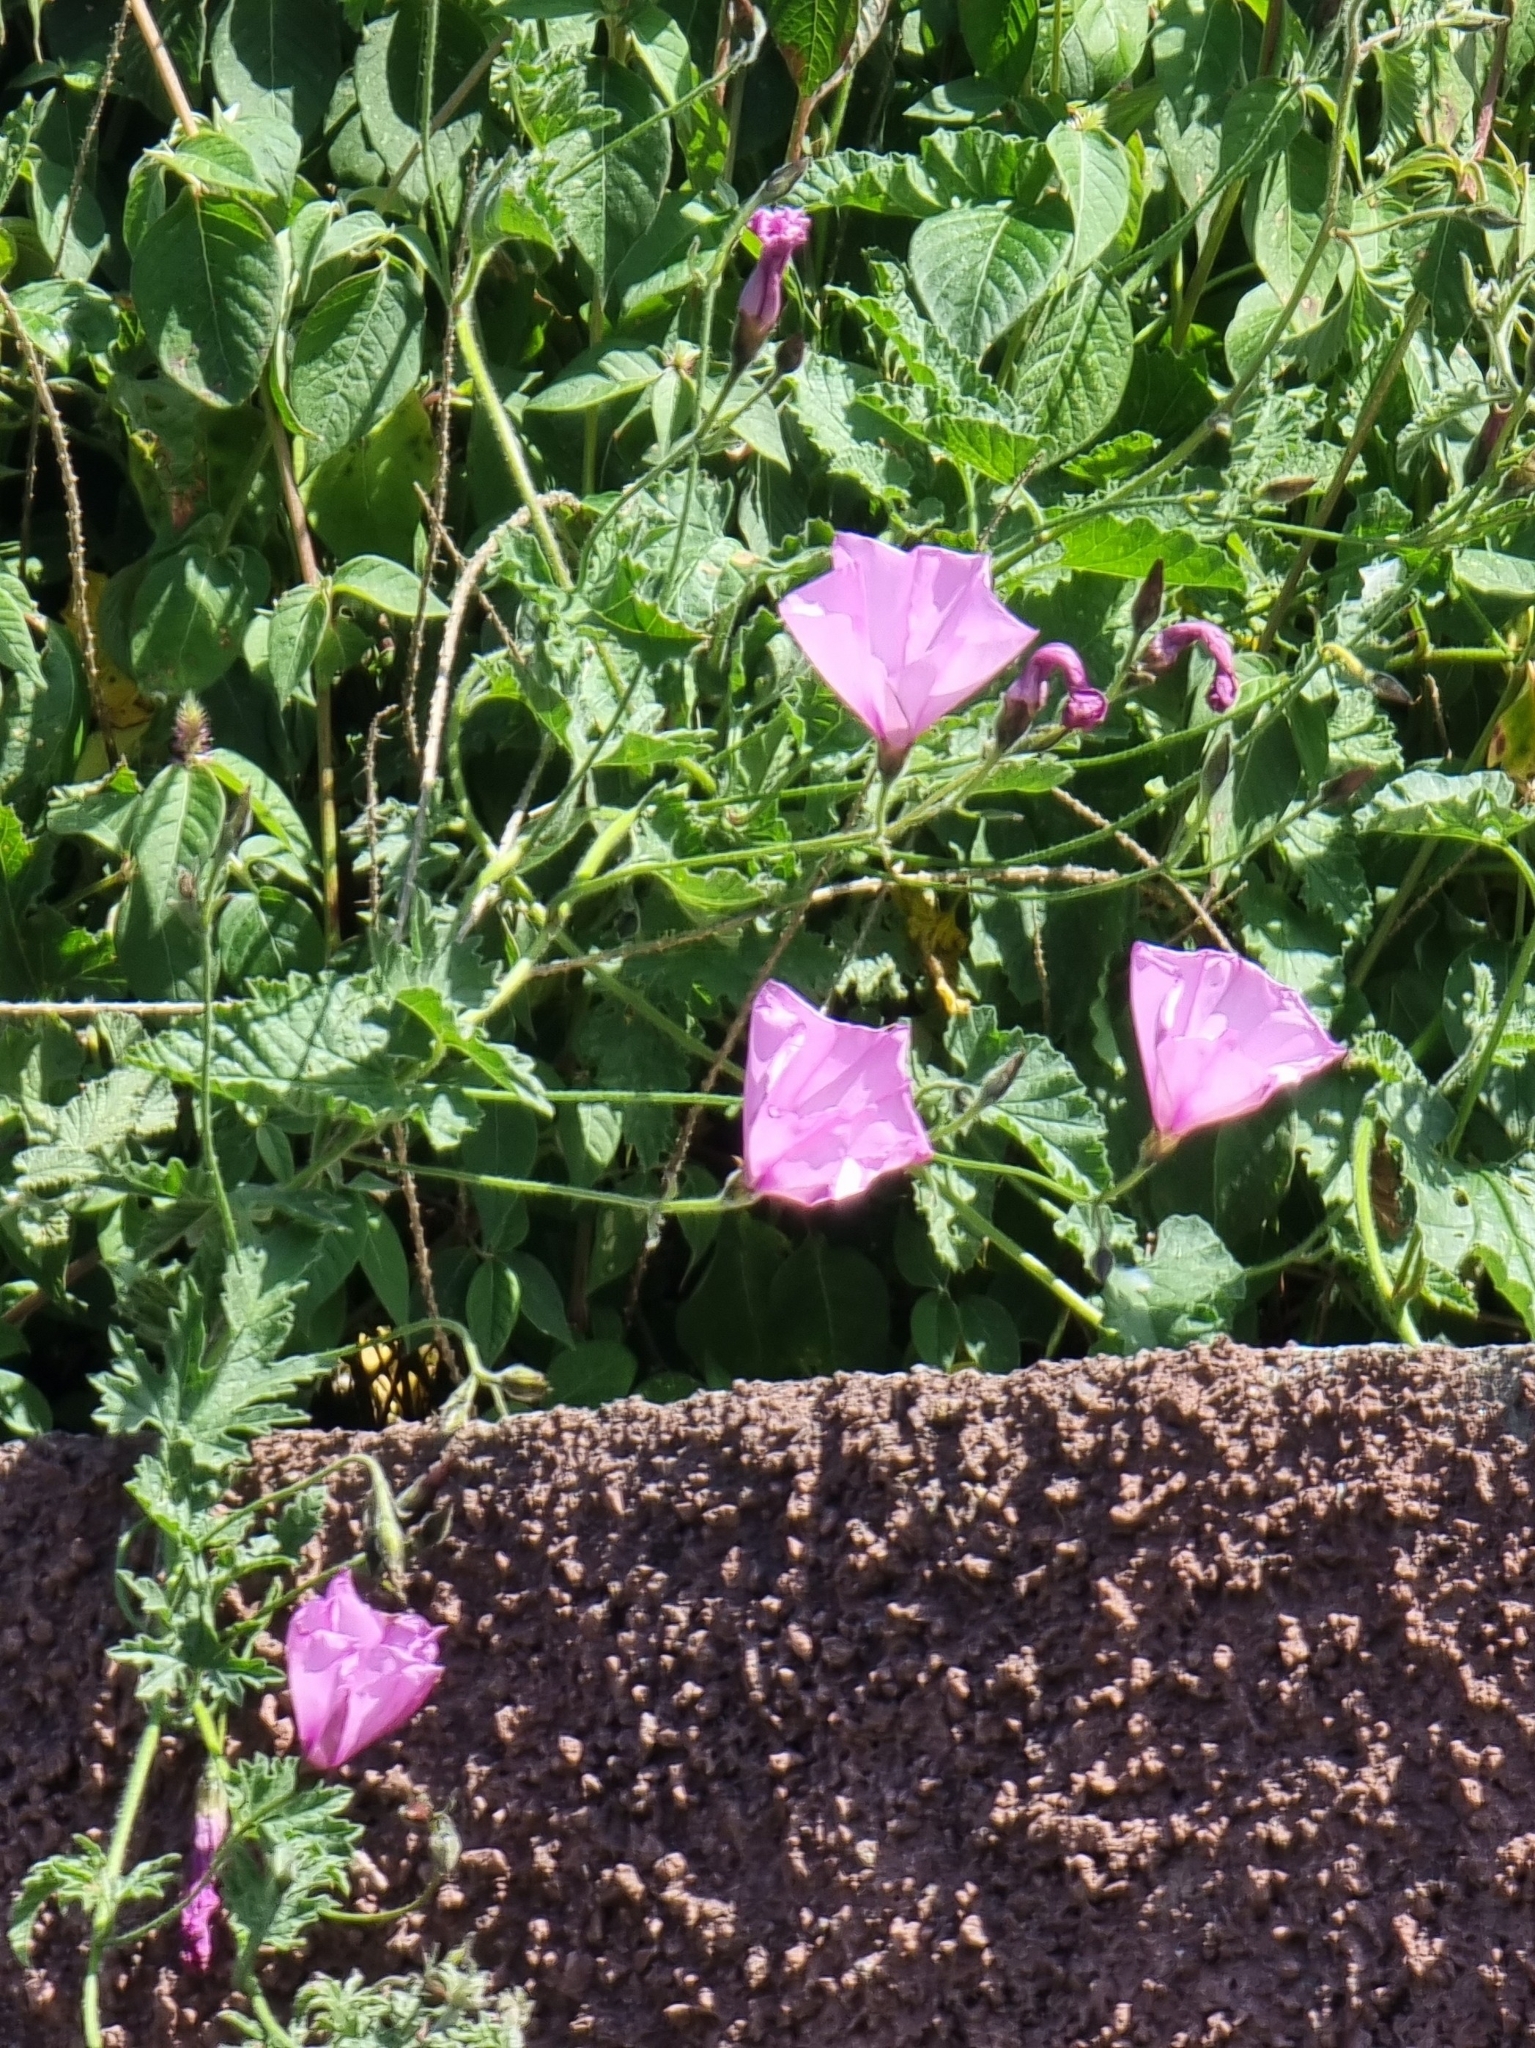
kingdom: Plantae
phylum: Tracheophyta
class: Magnoliopsida
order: Solanales
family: Convolvulaceae
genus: Convolvulus
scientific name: Convolvulus althaeoides
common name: Mallow bindweed
